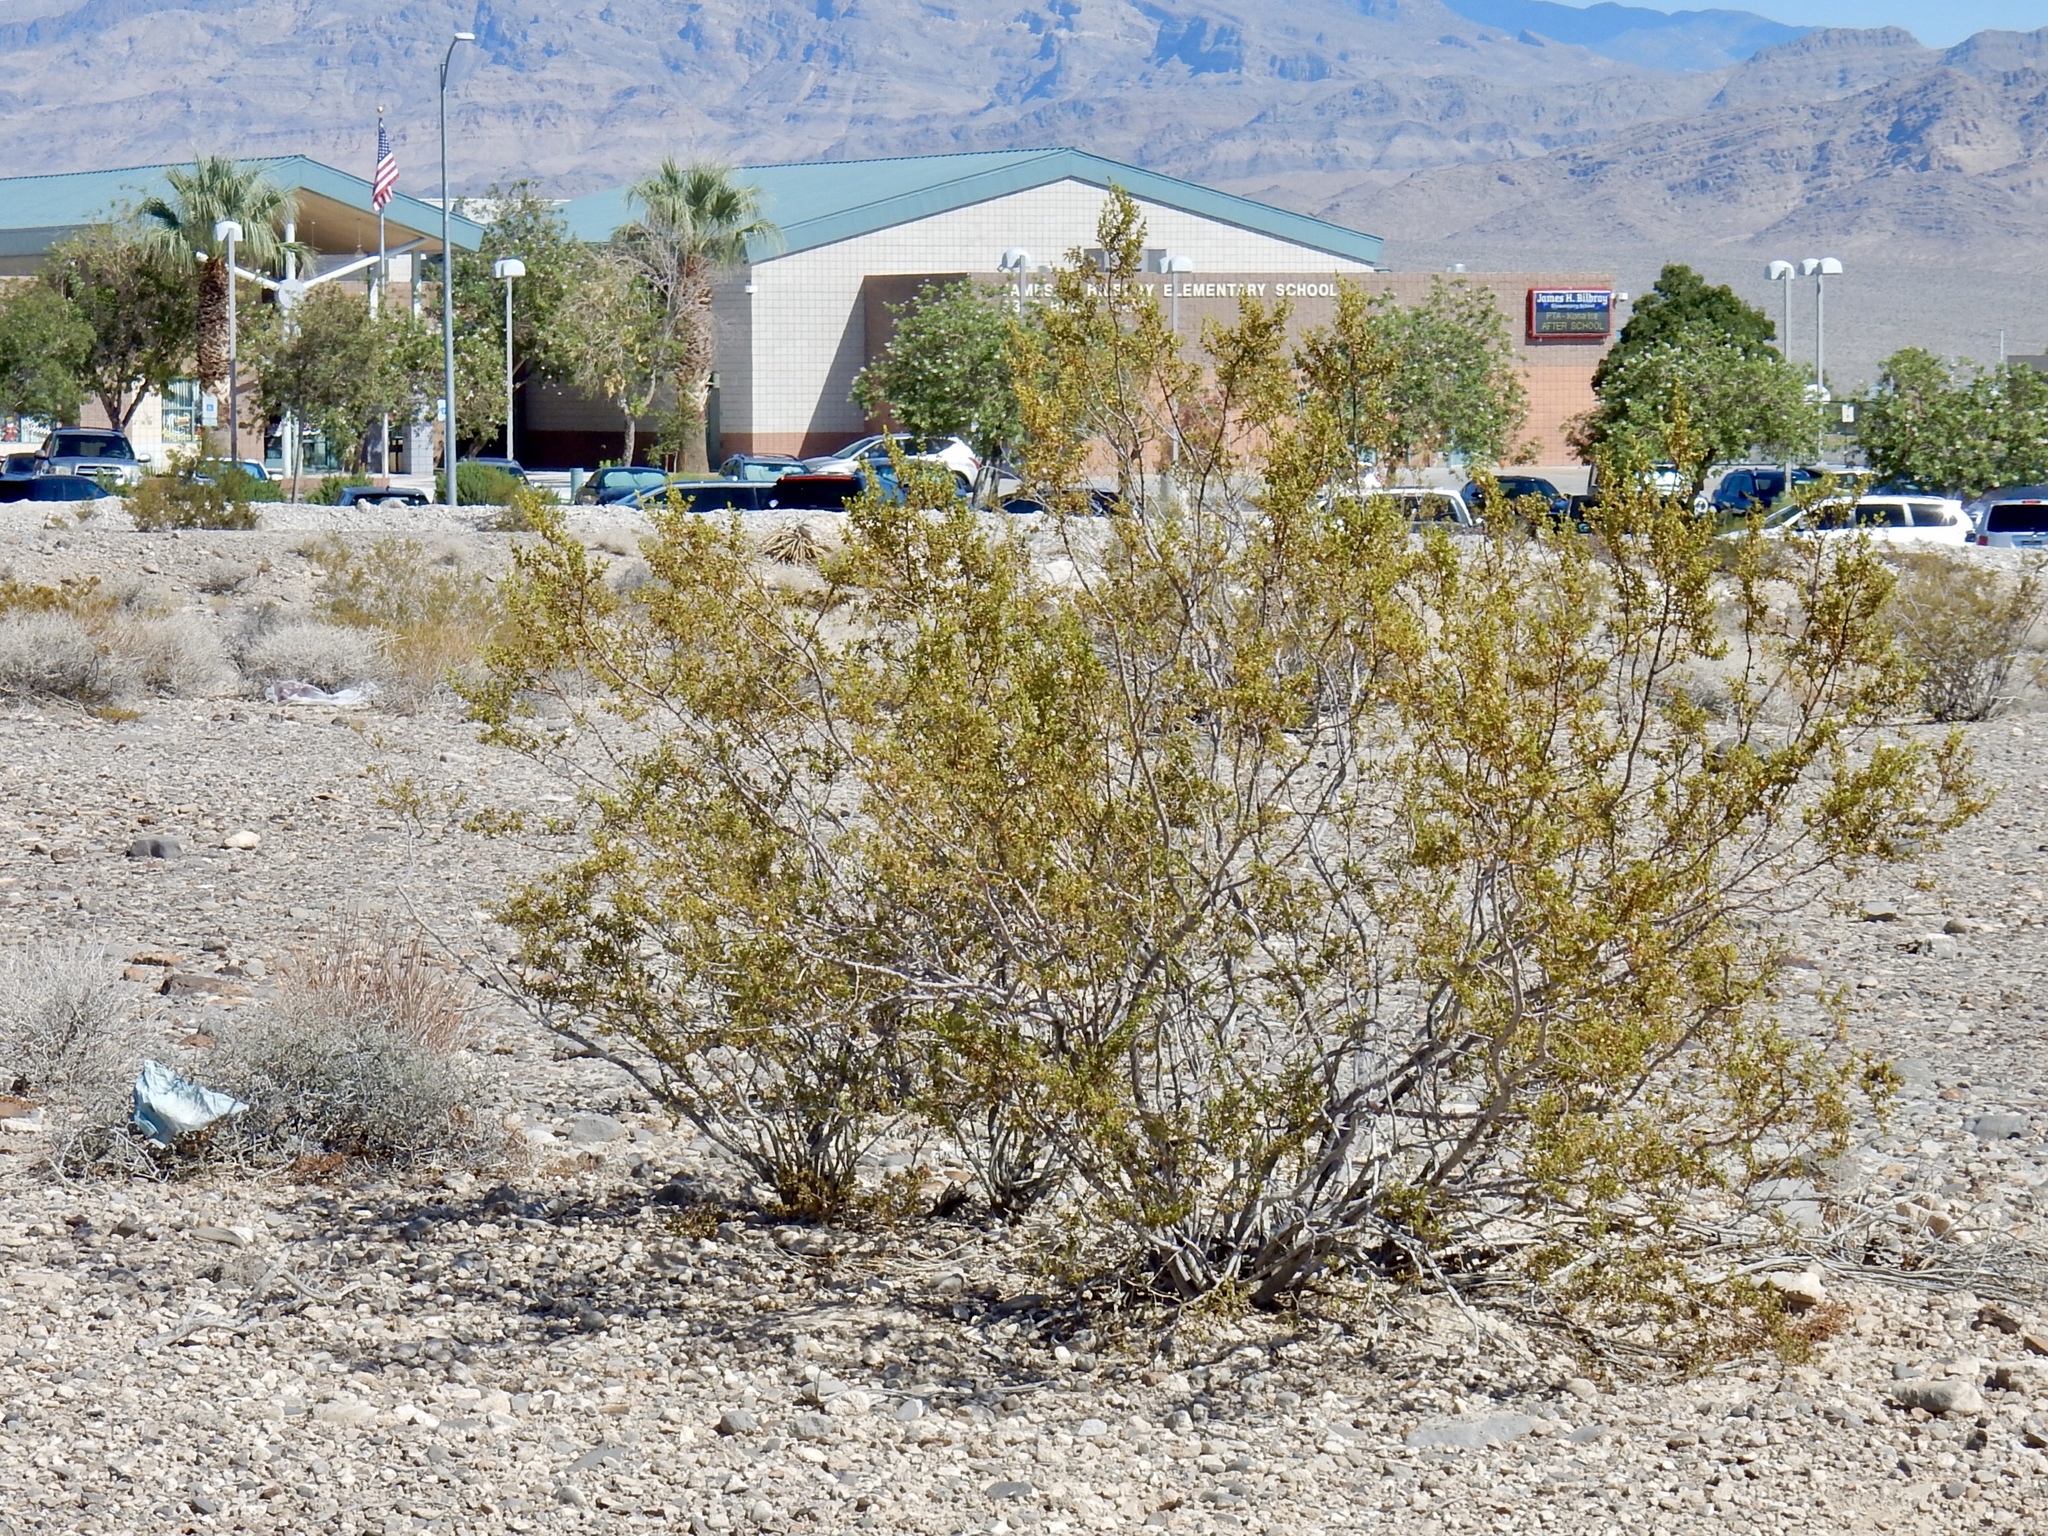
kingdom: Plantae
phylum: Tracheophyta
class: Magnoliopsida
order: Zygophyllales
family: Zygophyllaceae
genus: Larrea
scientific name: Larrea tridentata
